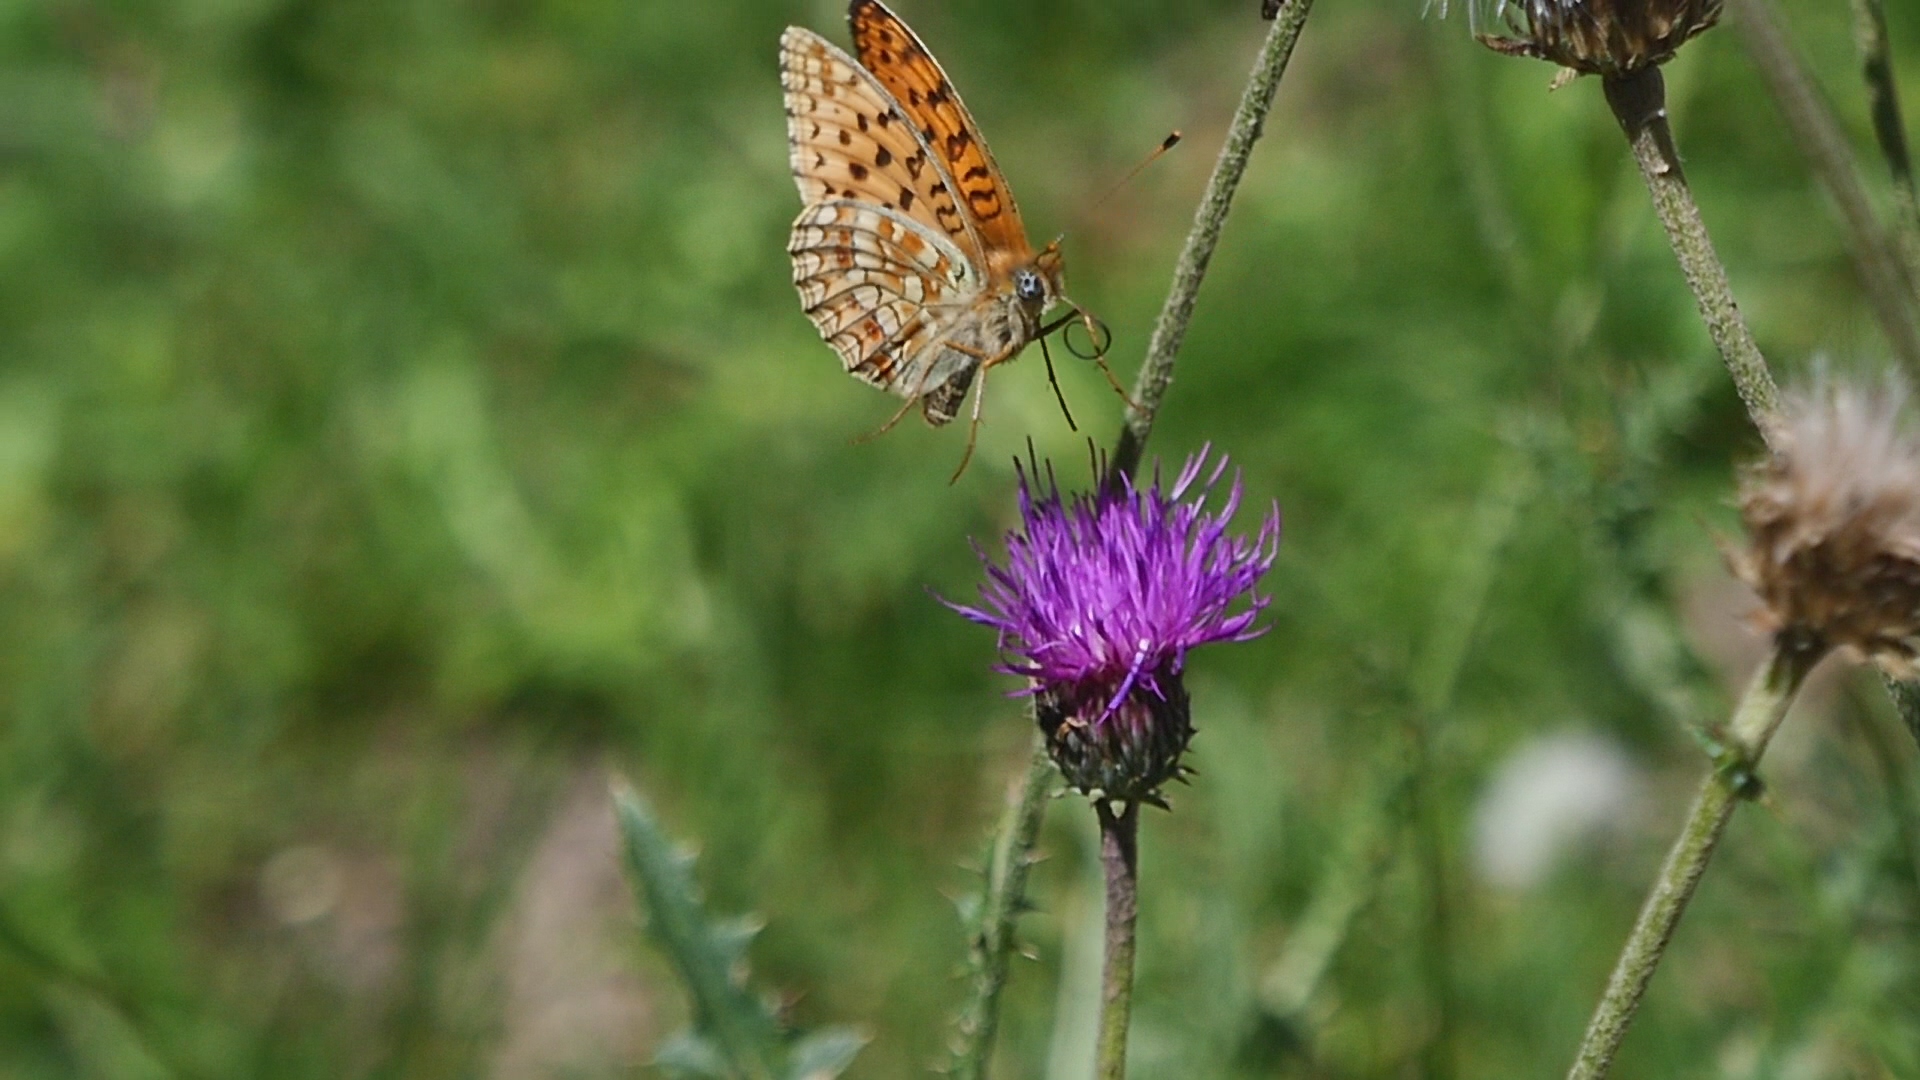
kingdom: Animalia
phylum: Arthropoda
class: Insecta
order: Lepidoptera
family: Nymphalidae
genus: Fabriciana
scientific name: Fabriciana niobe
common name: Niobe fritillary
